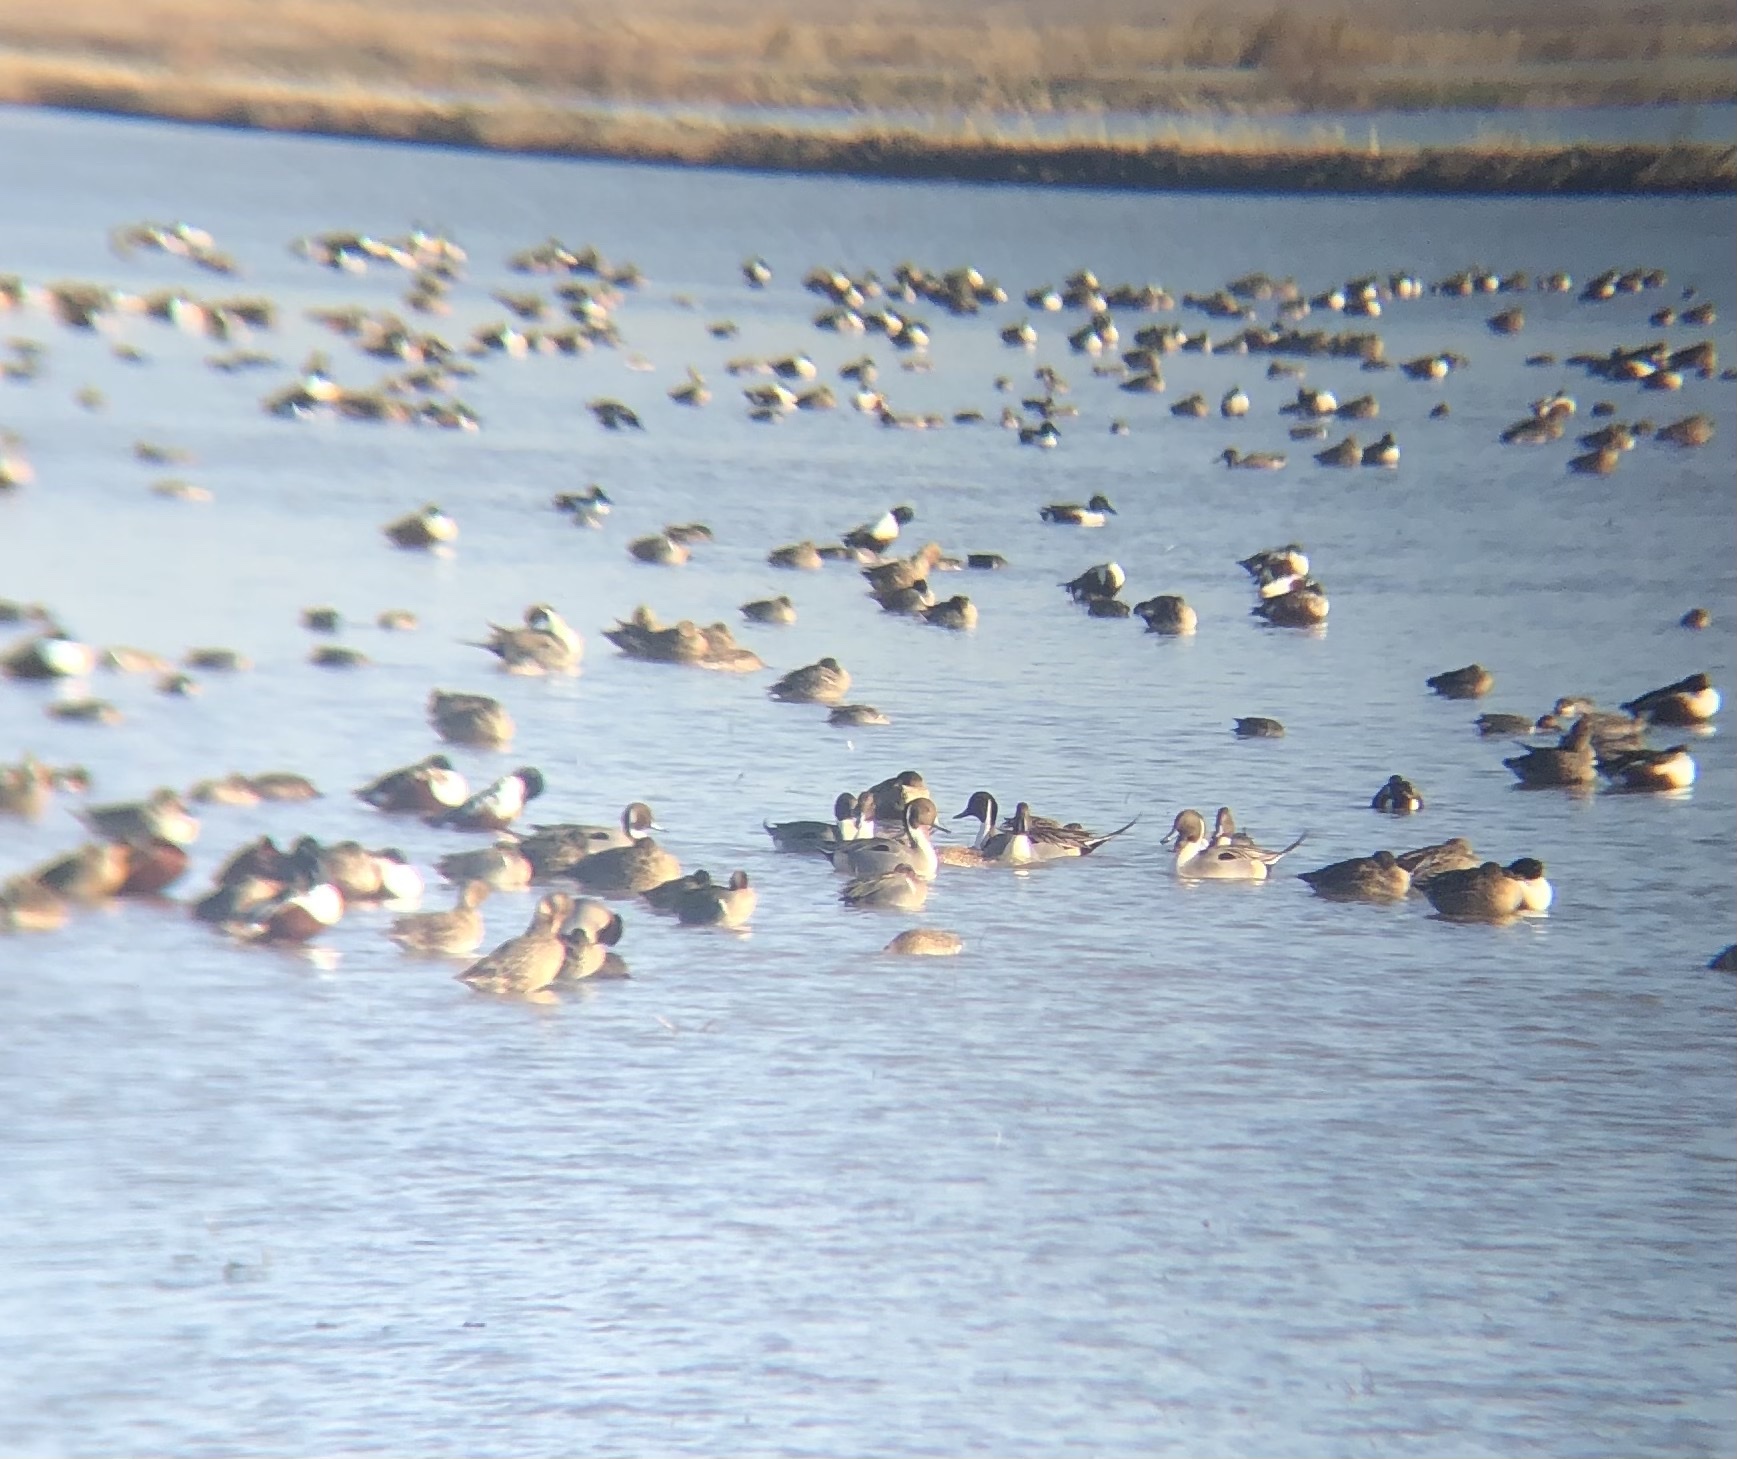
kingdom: Animalia
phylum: Chordata
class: Aves
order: Anseriformes
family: Anatidae
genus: Anas
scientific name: Anas acuta
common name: Northern pintail
